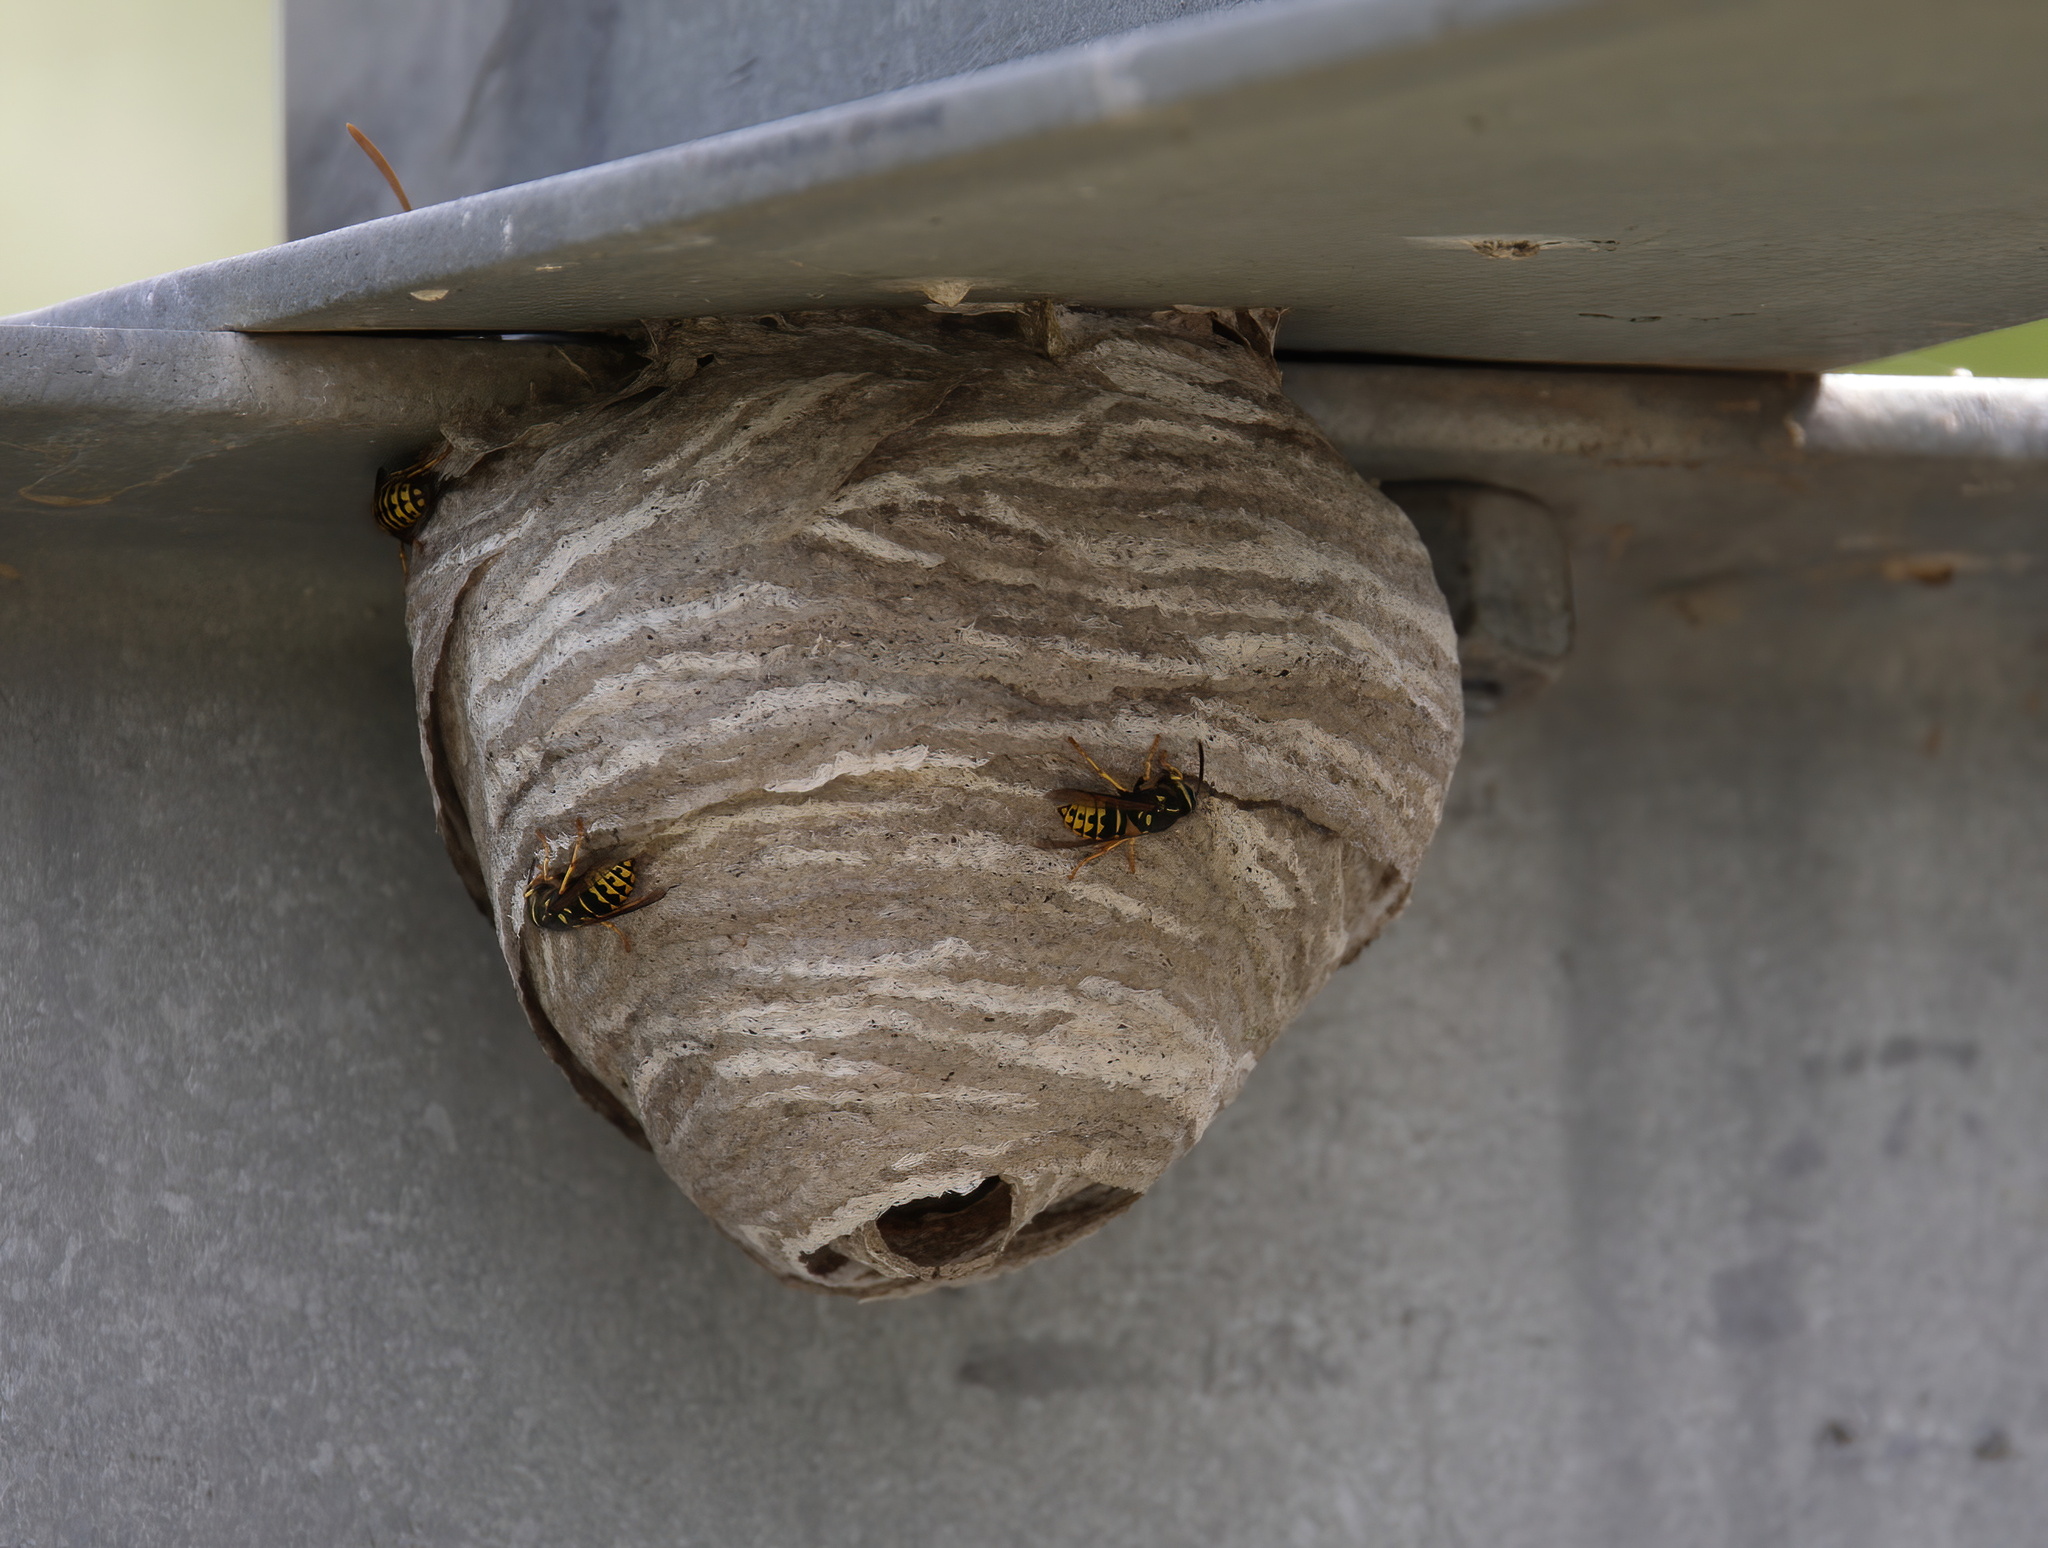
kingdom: Animalia
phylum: Arthropoda
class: Insecta
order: Hymenoptera
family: Vespidae
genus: Dolichovespula
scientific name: Dolichovespula arenaria
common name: Aerial yellowjacket
